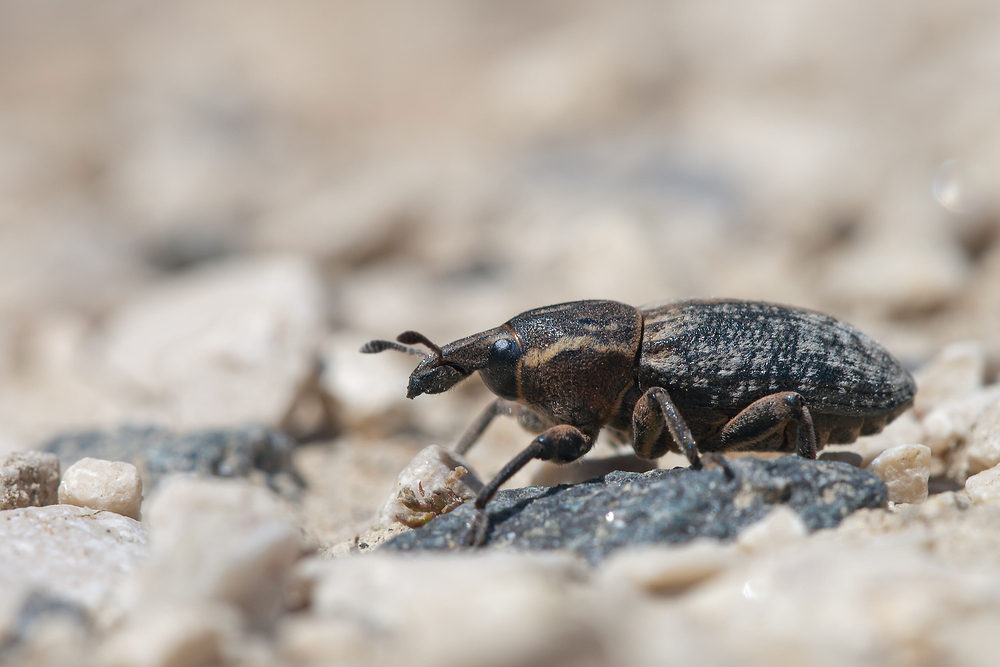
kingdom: Animalia
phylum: Arthropoda
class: Insecta
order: Coleoptera
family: Curculionidae
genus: Pseudocleonus
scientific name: Pseudocleonus cinereus
